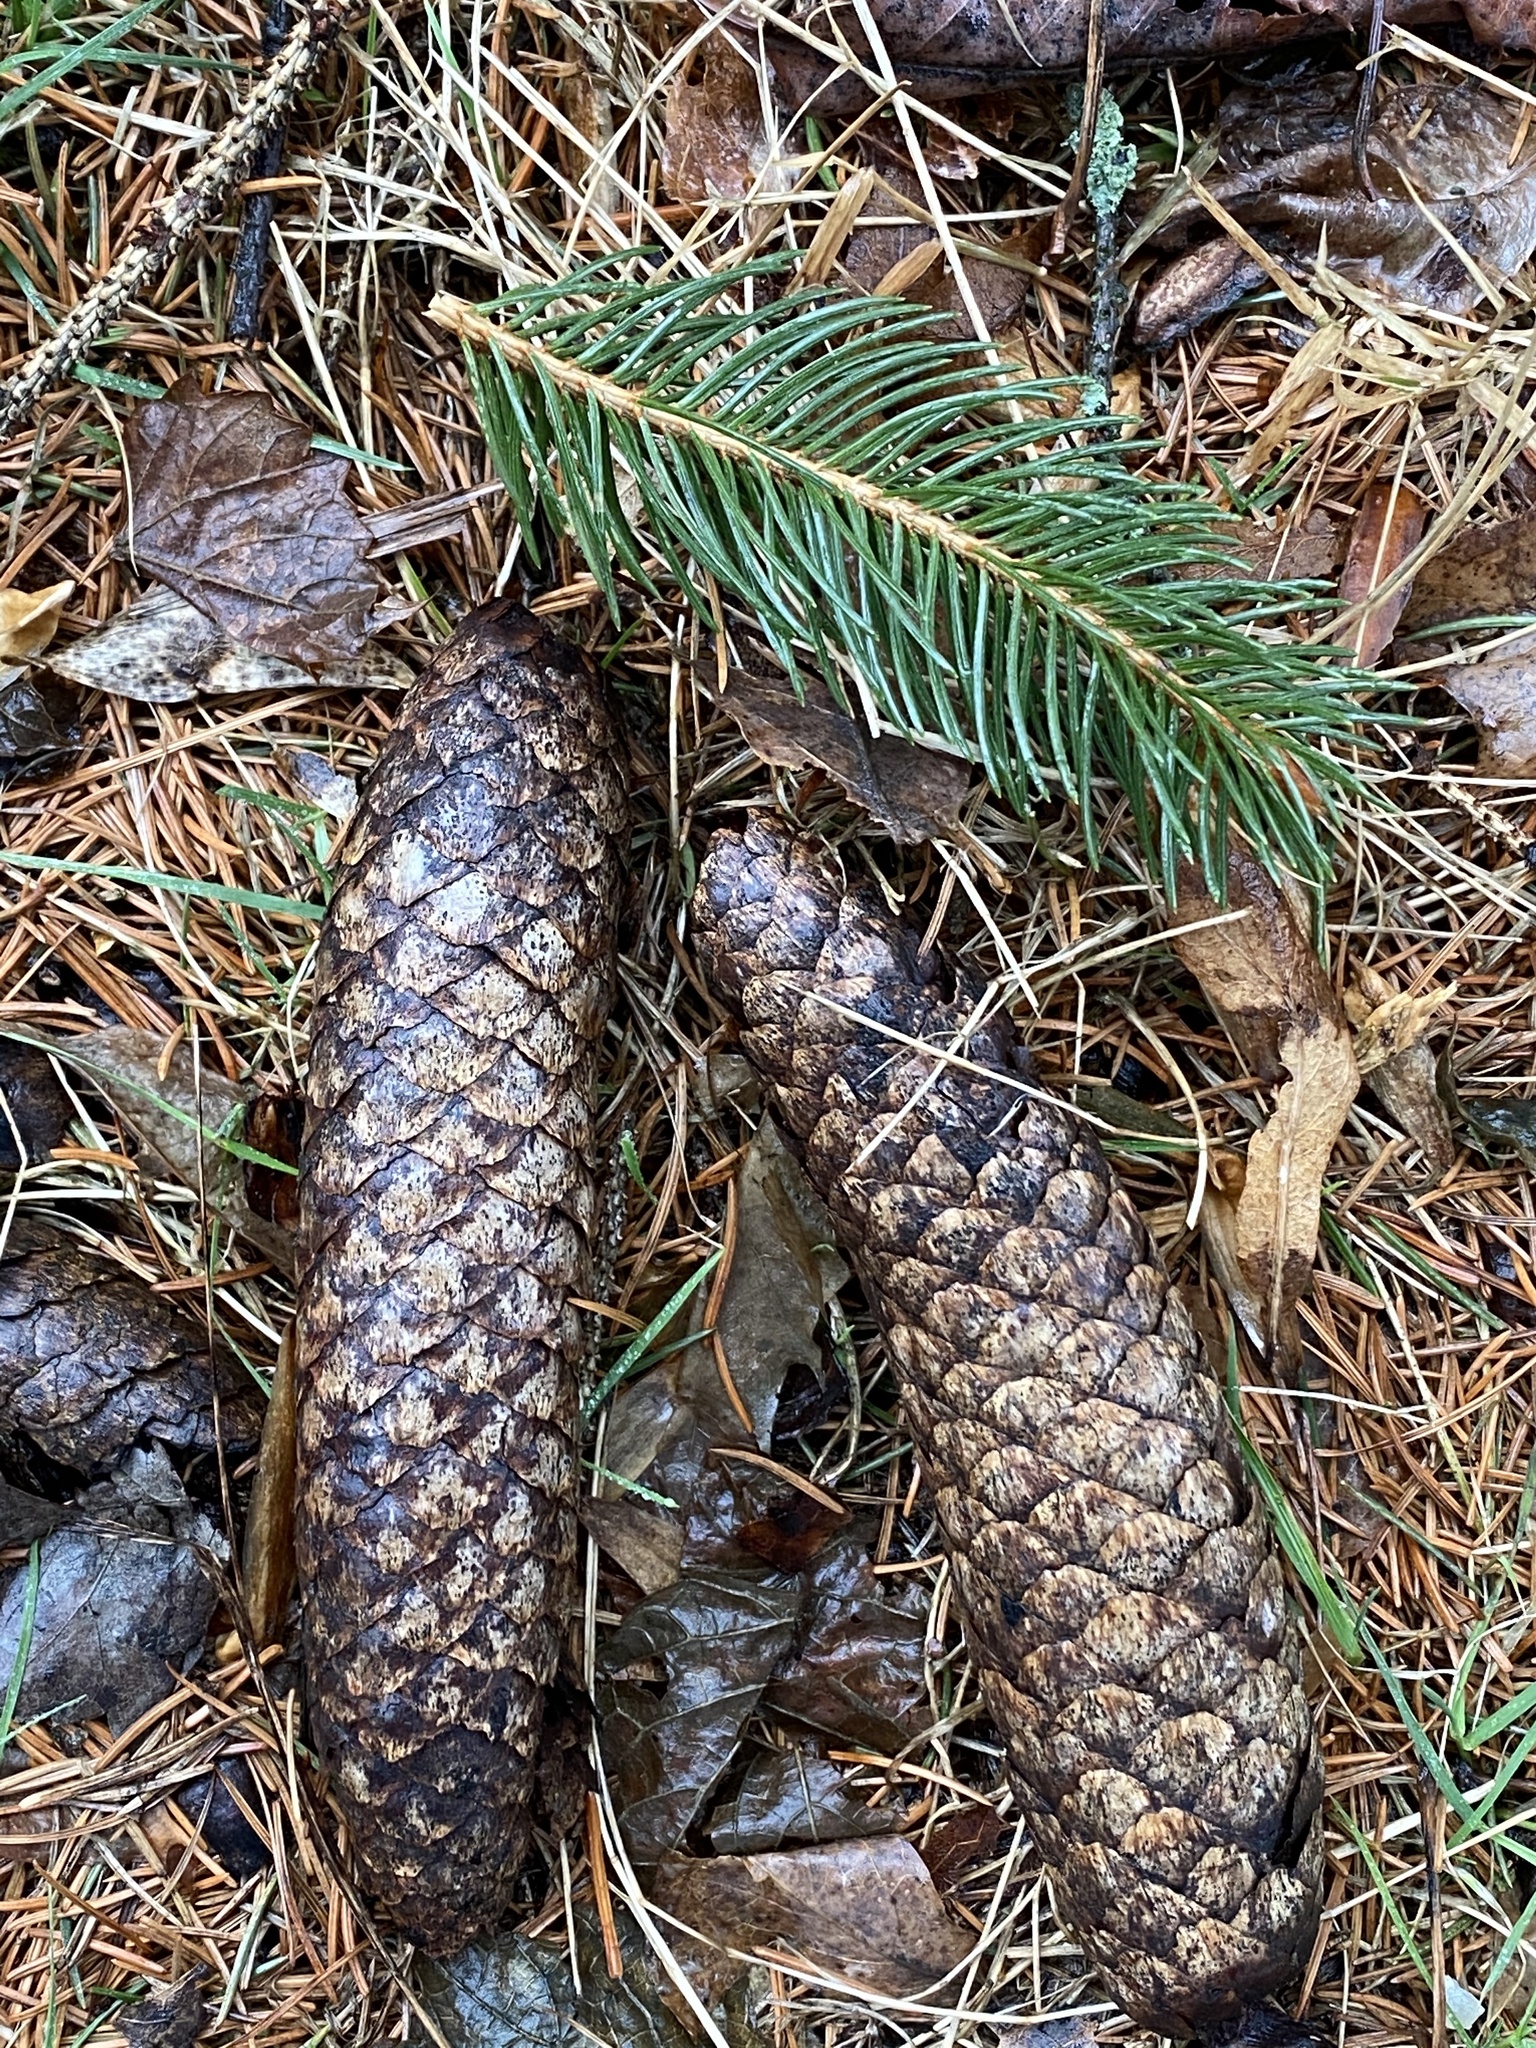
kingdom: Plantae
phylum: Tracheophyta
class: Pinopsida
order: Pinales
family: Pinaceae
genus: Picea
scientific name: Picea abies
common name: Norway spruce
